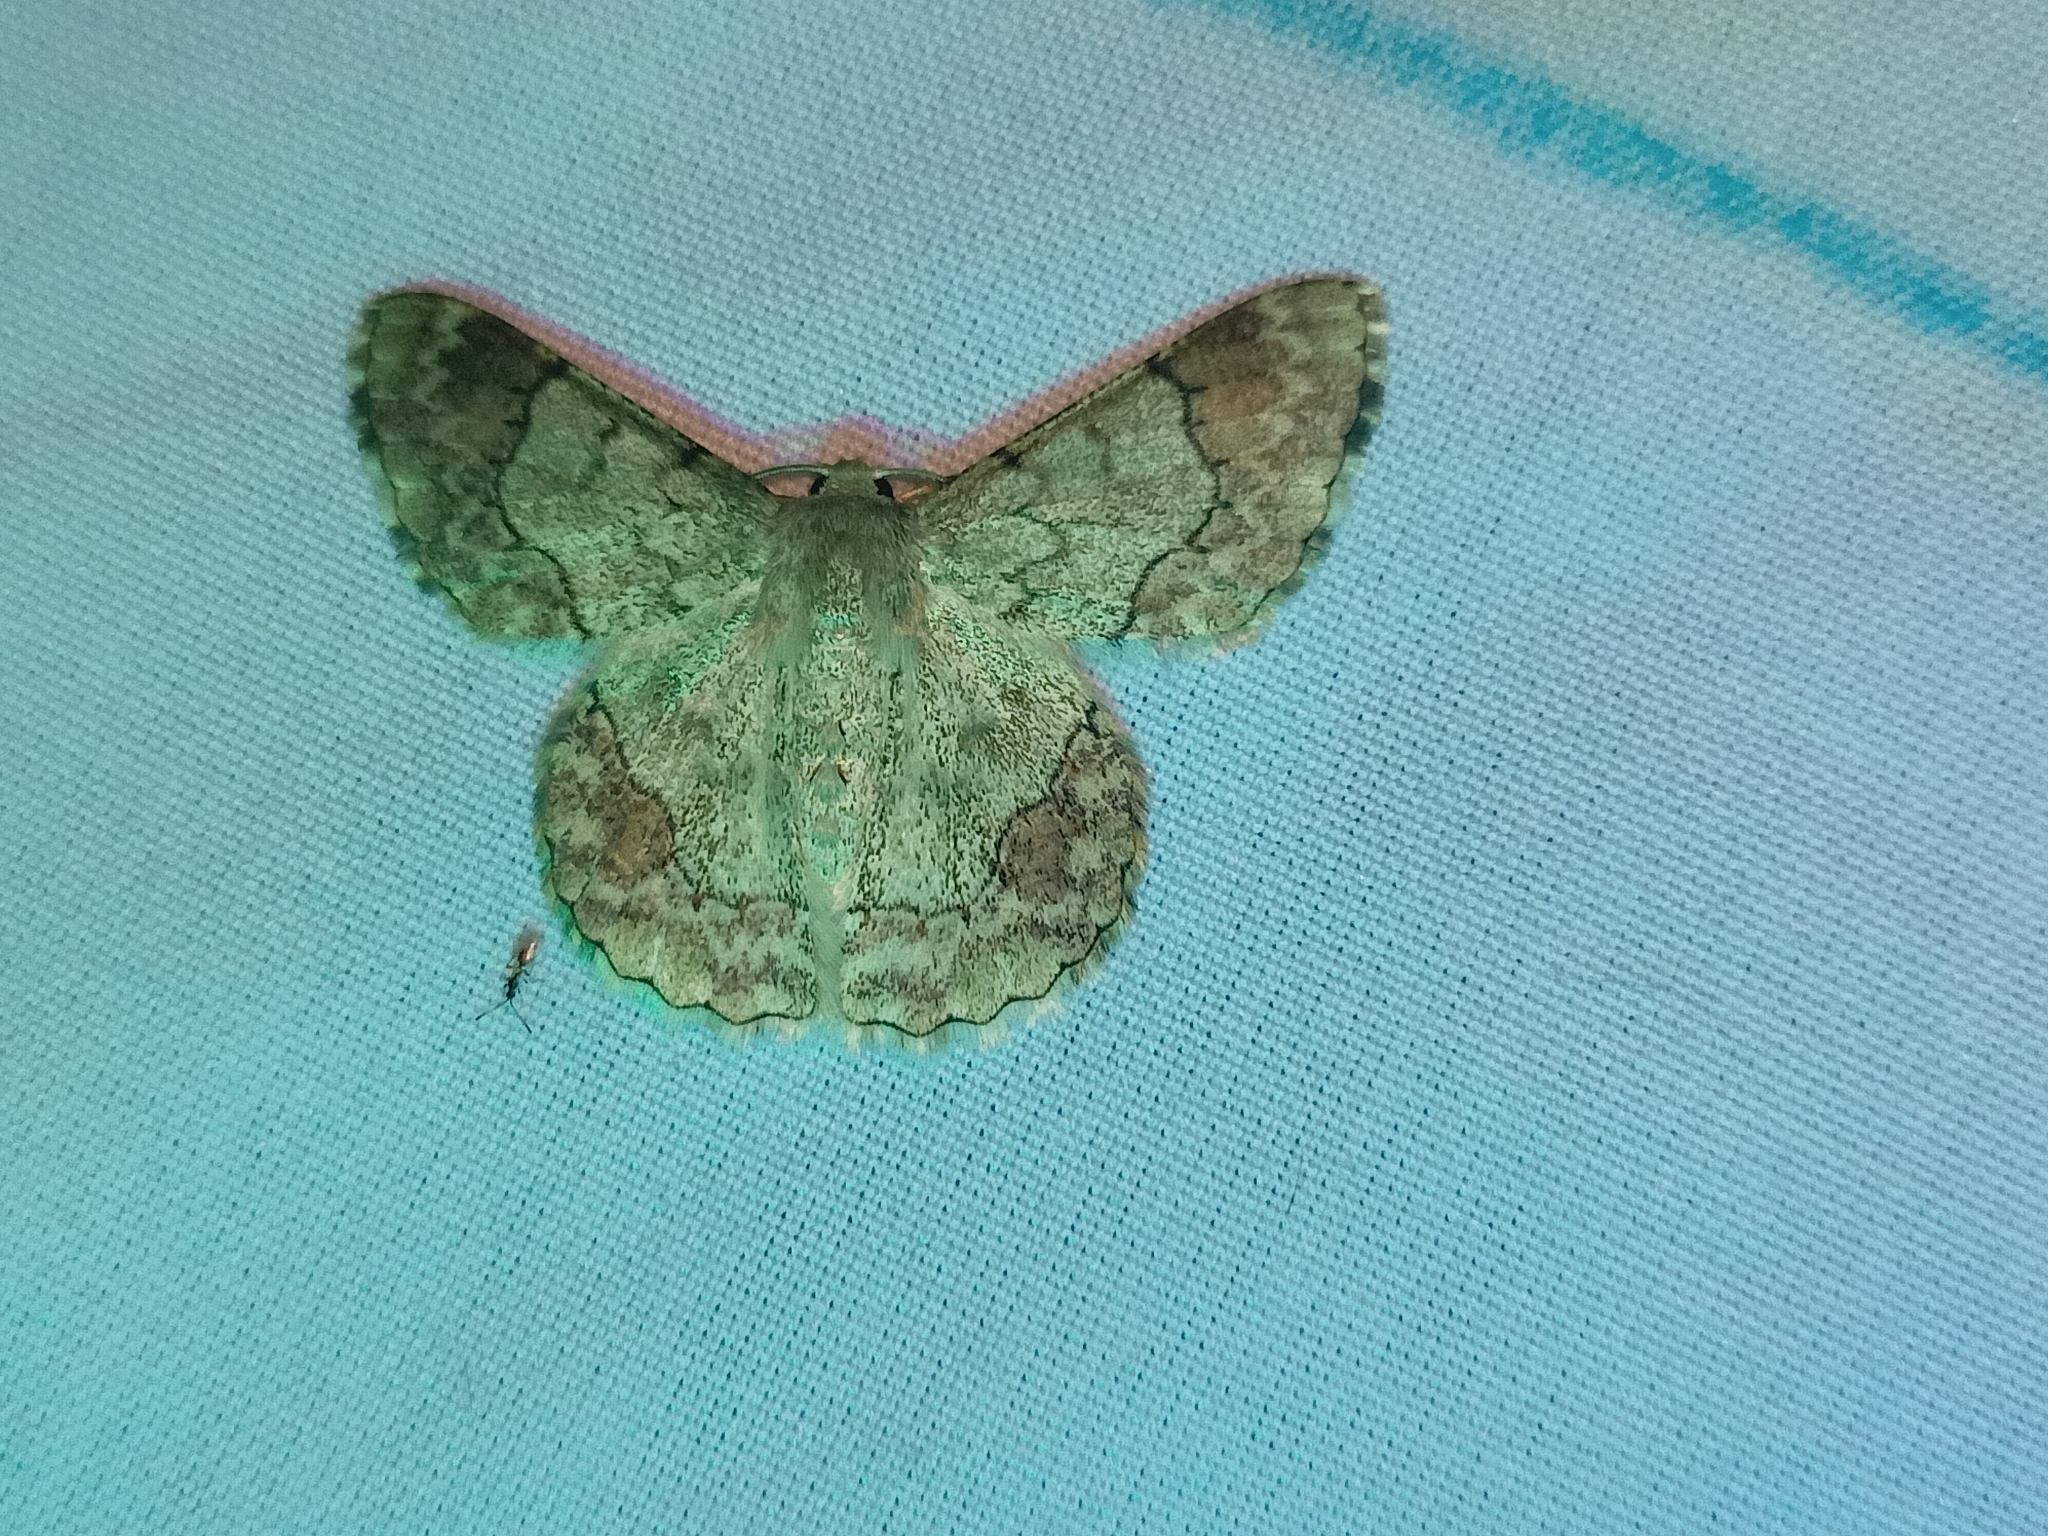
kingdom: Animalia
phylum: Arthropoda
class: Insecta
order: Lepidoptera
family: Geometridae
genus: Pingasa
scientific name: Pingasa ruginaria
